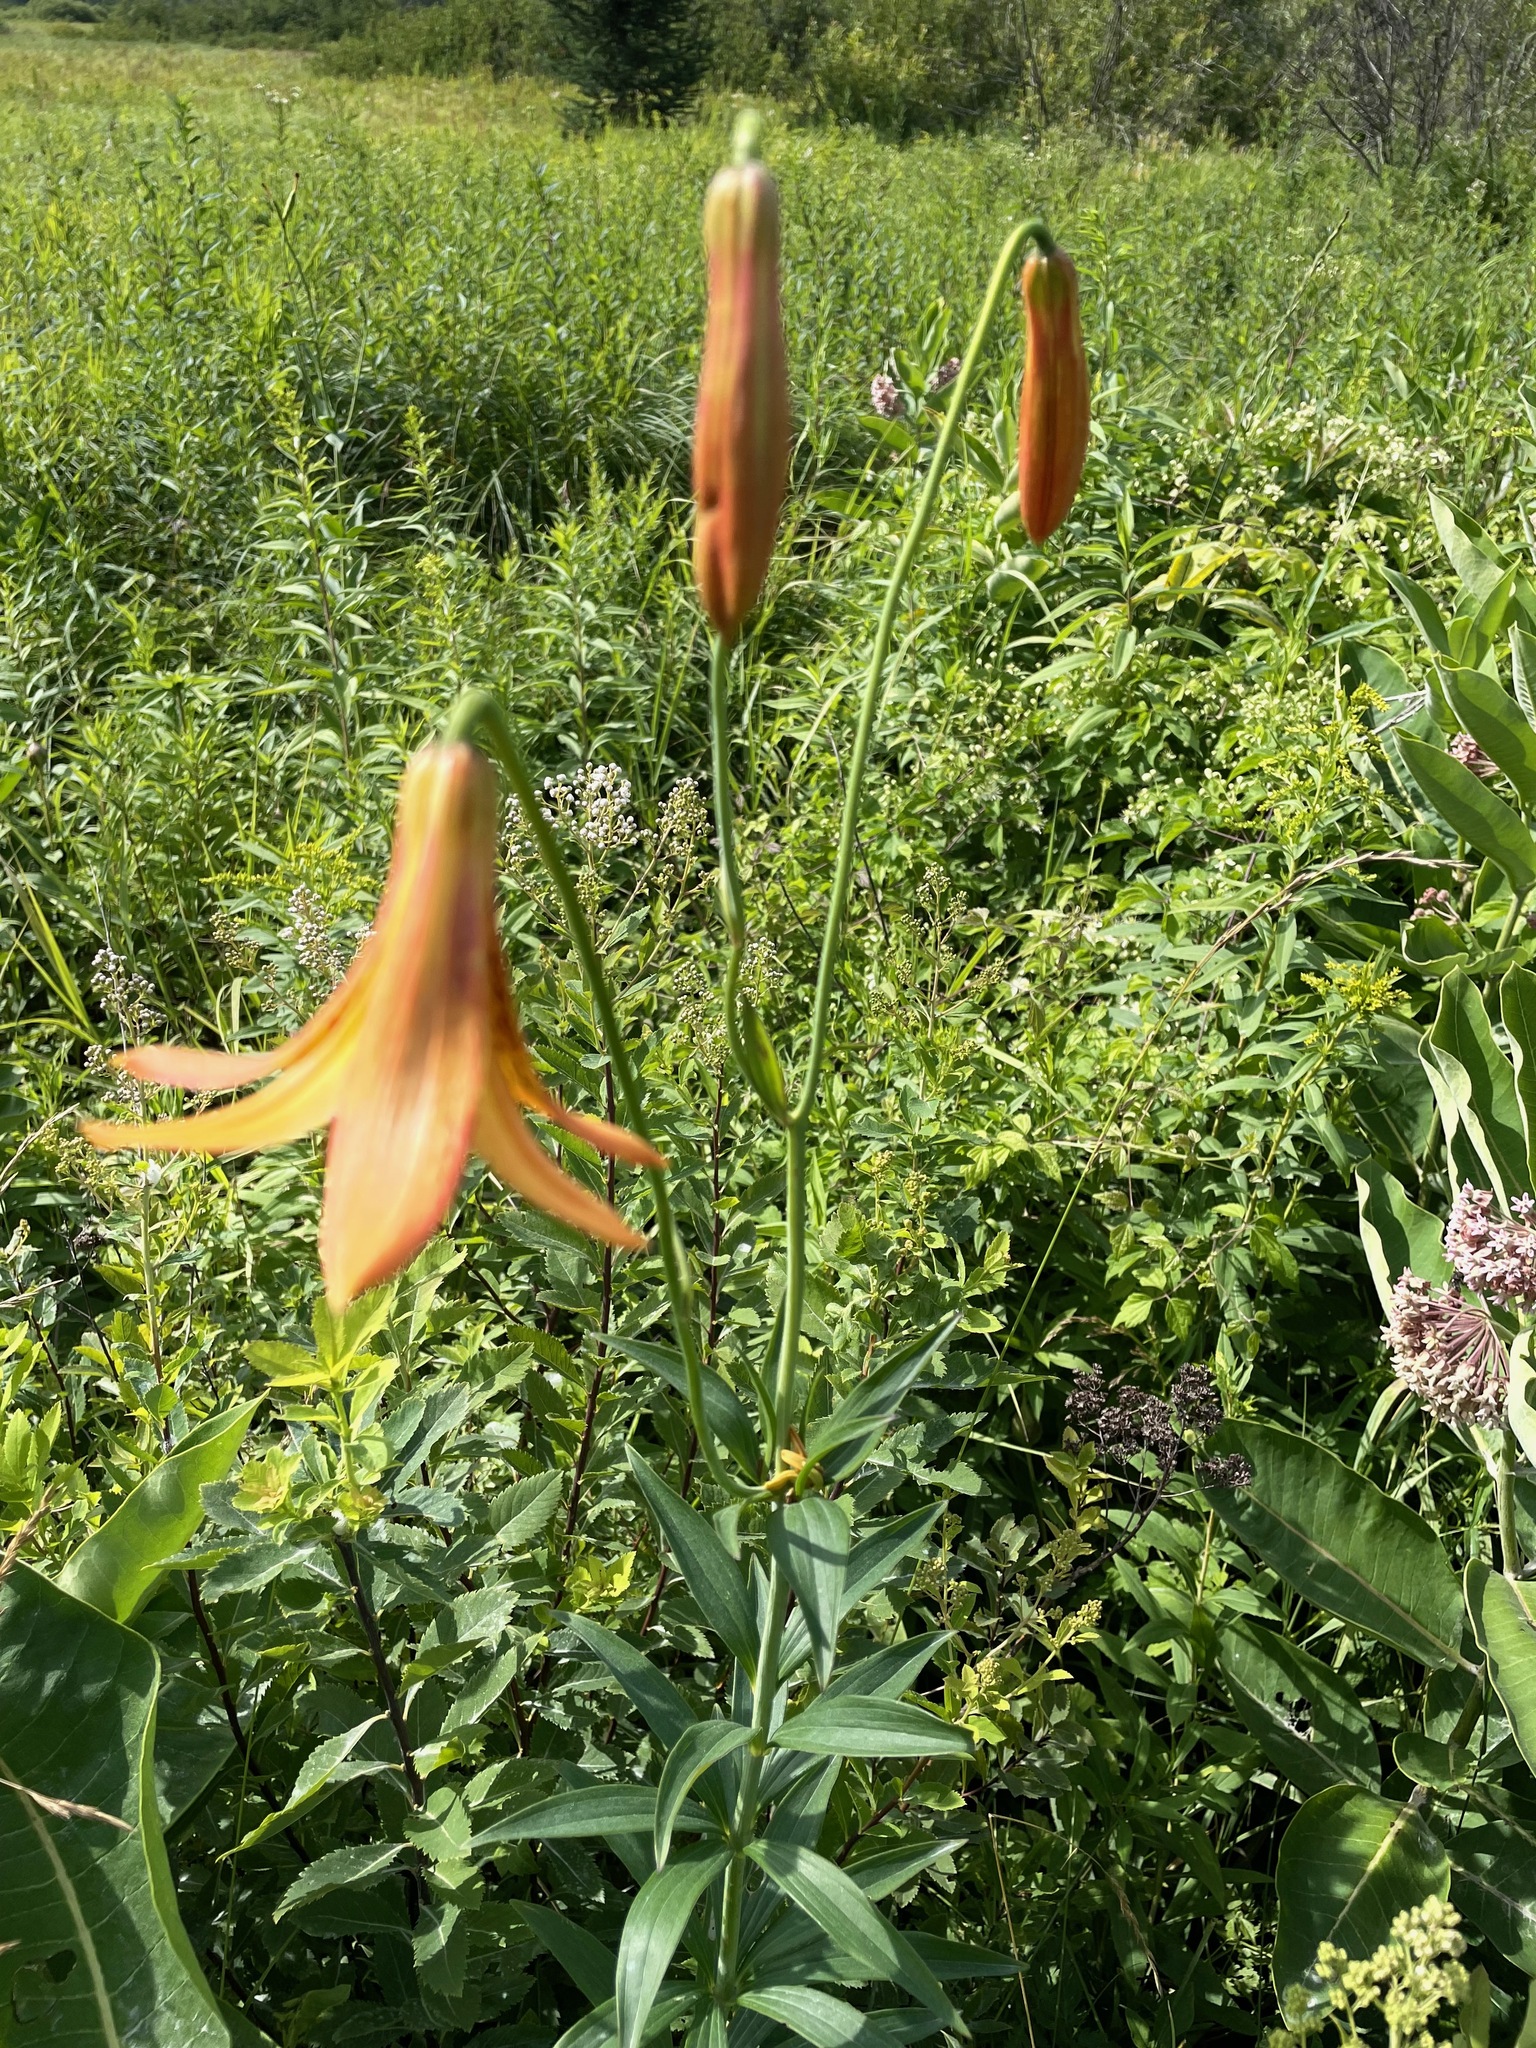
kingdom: Plantae
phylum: Tracheophyta
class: Liliopsida
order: Liliales
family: Liliaceae
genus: Lilium
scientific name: Lilium canadense
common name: Canada lily
